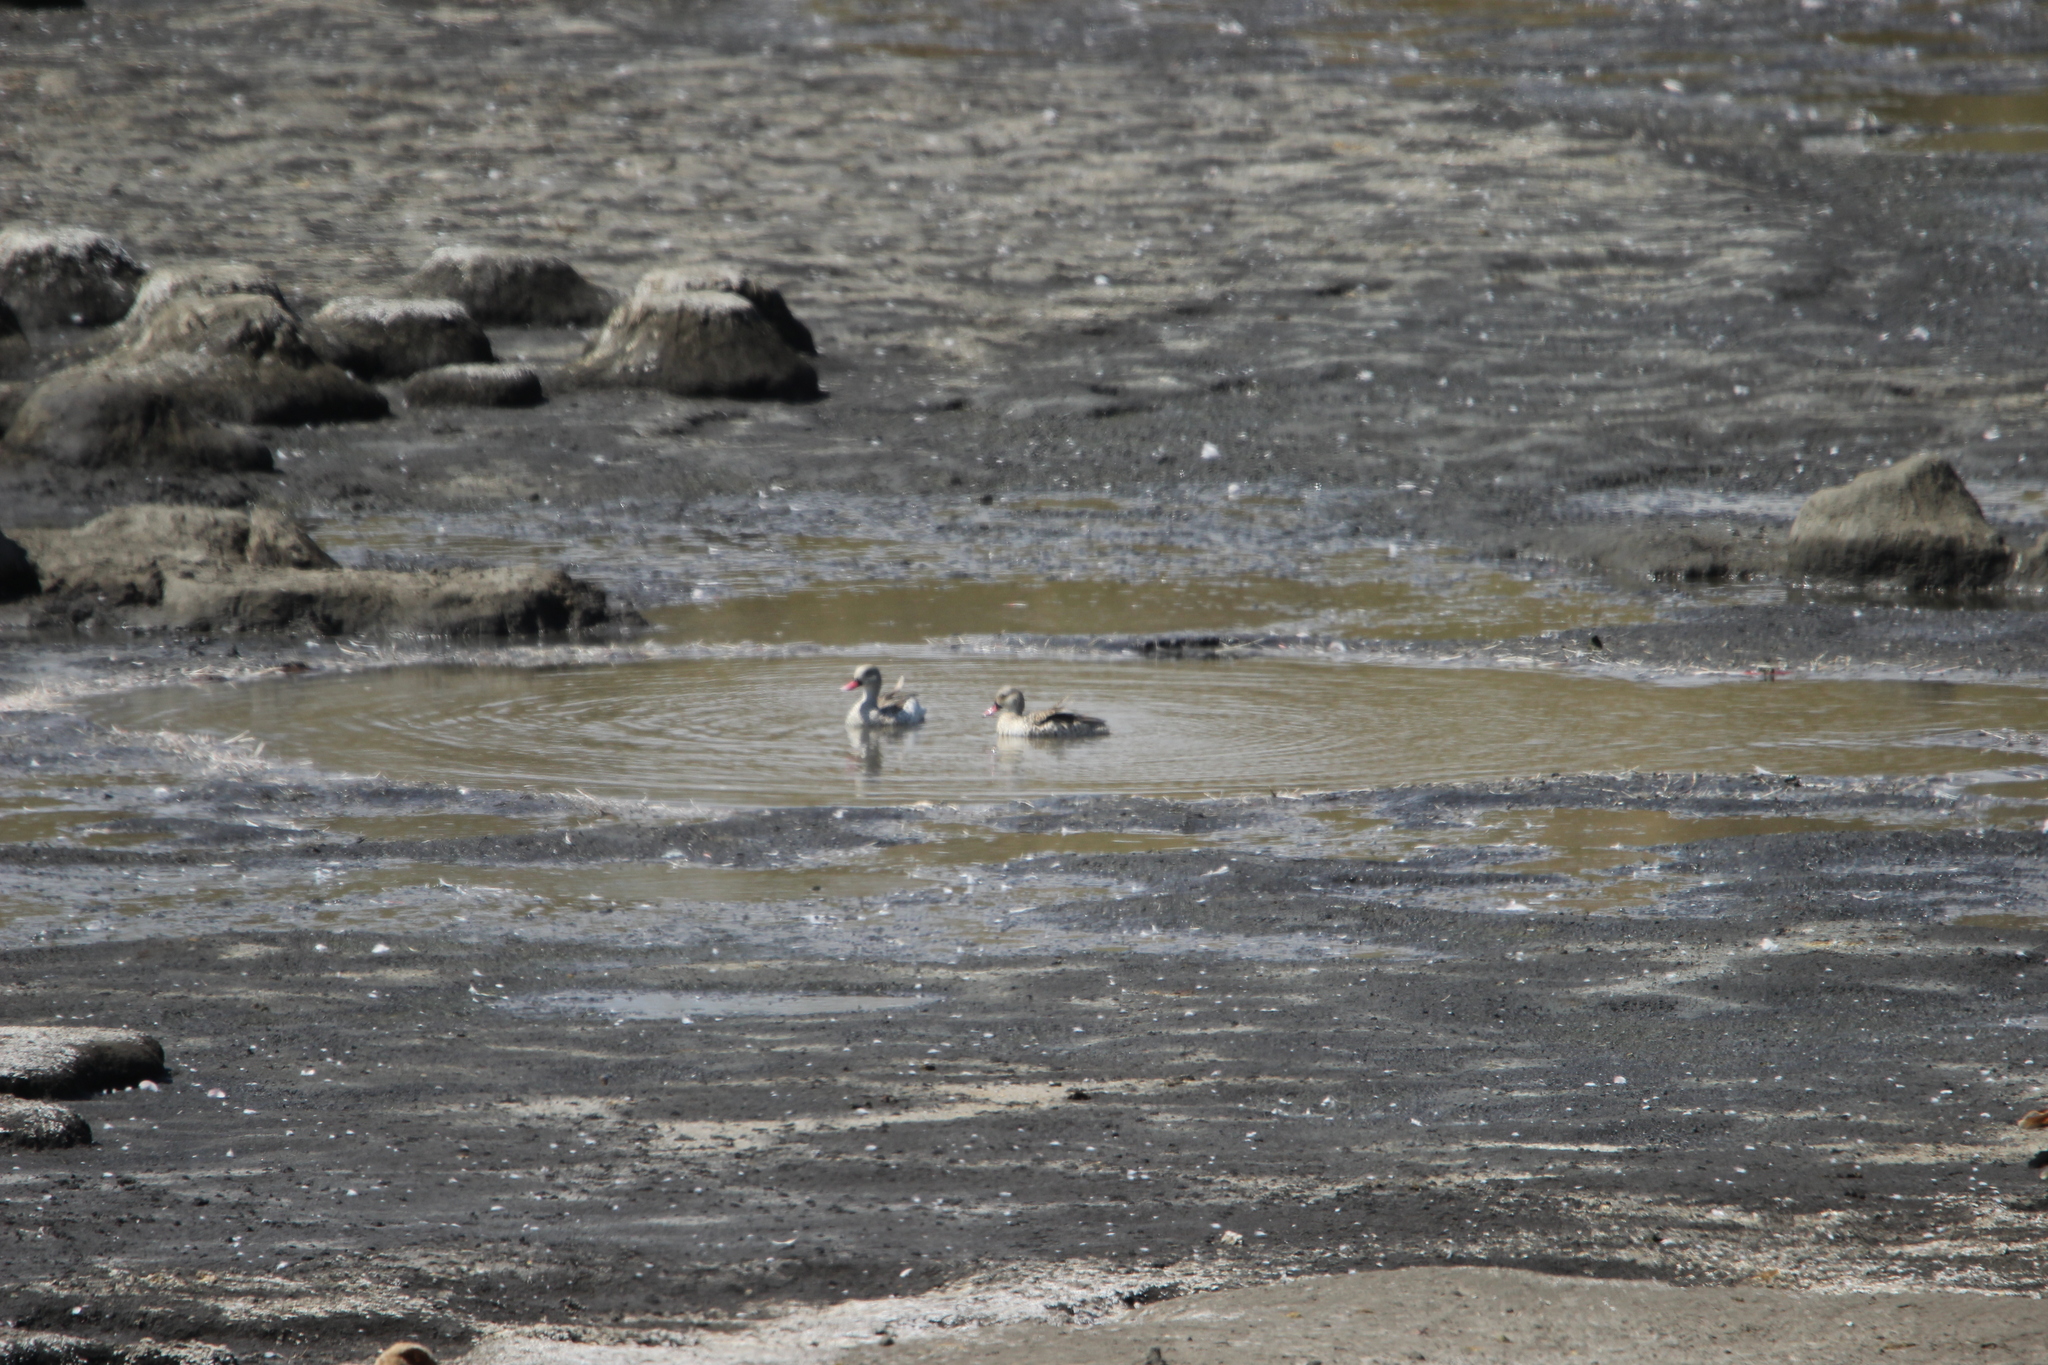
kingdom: Animalia
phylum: Chordata
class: Aves
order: Anseriformes
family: Anatidae
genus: Anas
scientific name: Anas capensis
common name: Cape teal
